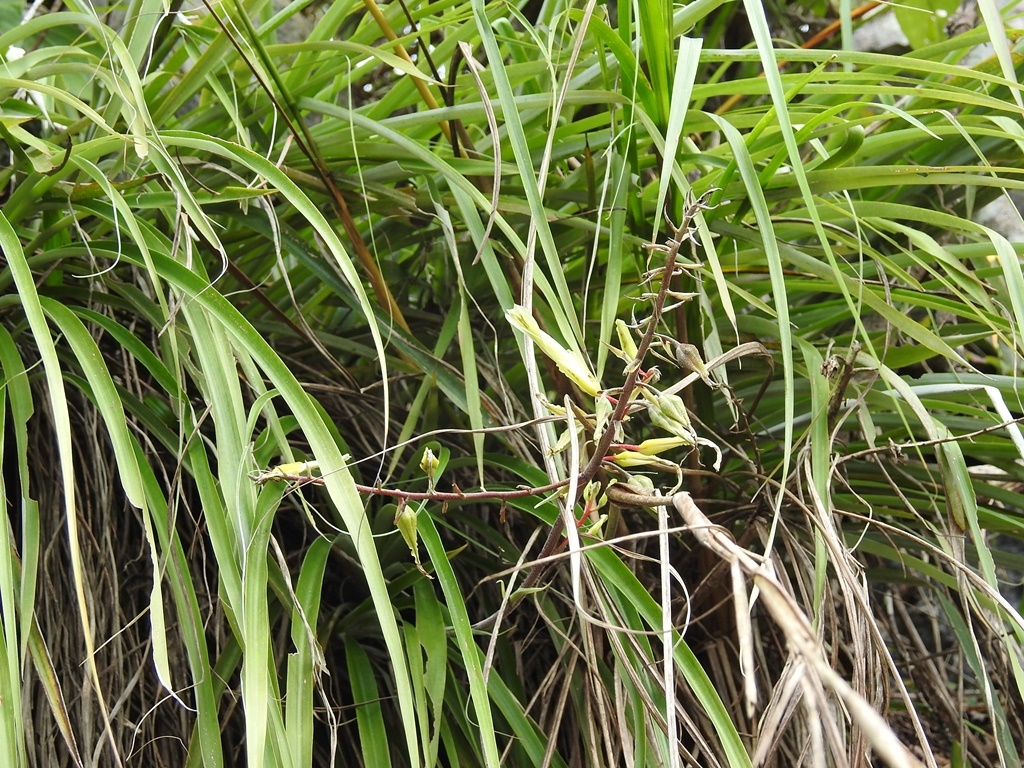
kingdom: Plantae
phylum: Tracheophyta
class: Liliopsida
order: Poales
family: Bromeliaceae
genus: Pitcairnia
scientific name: Pitcairnia breedlovei
